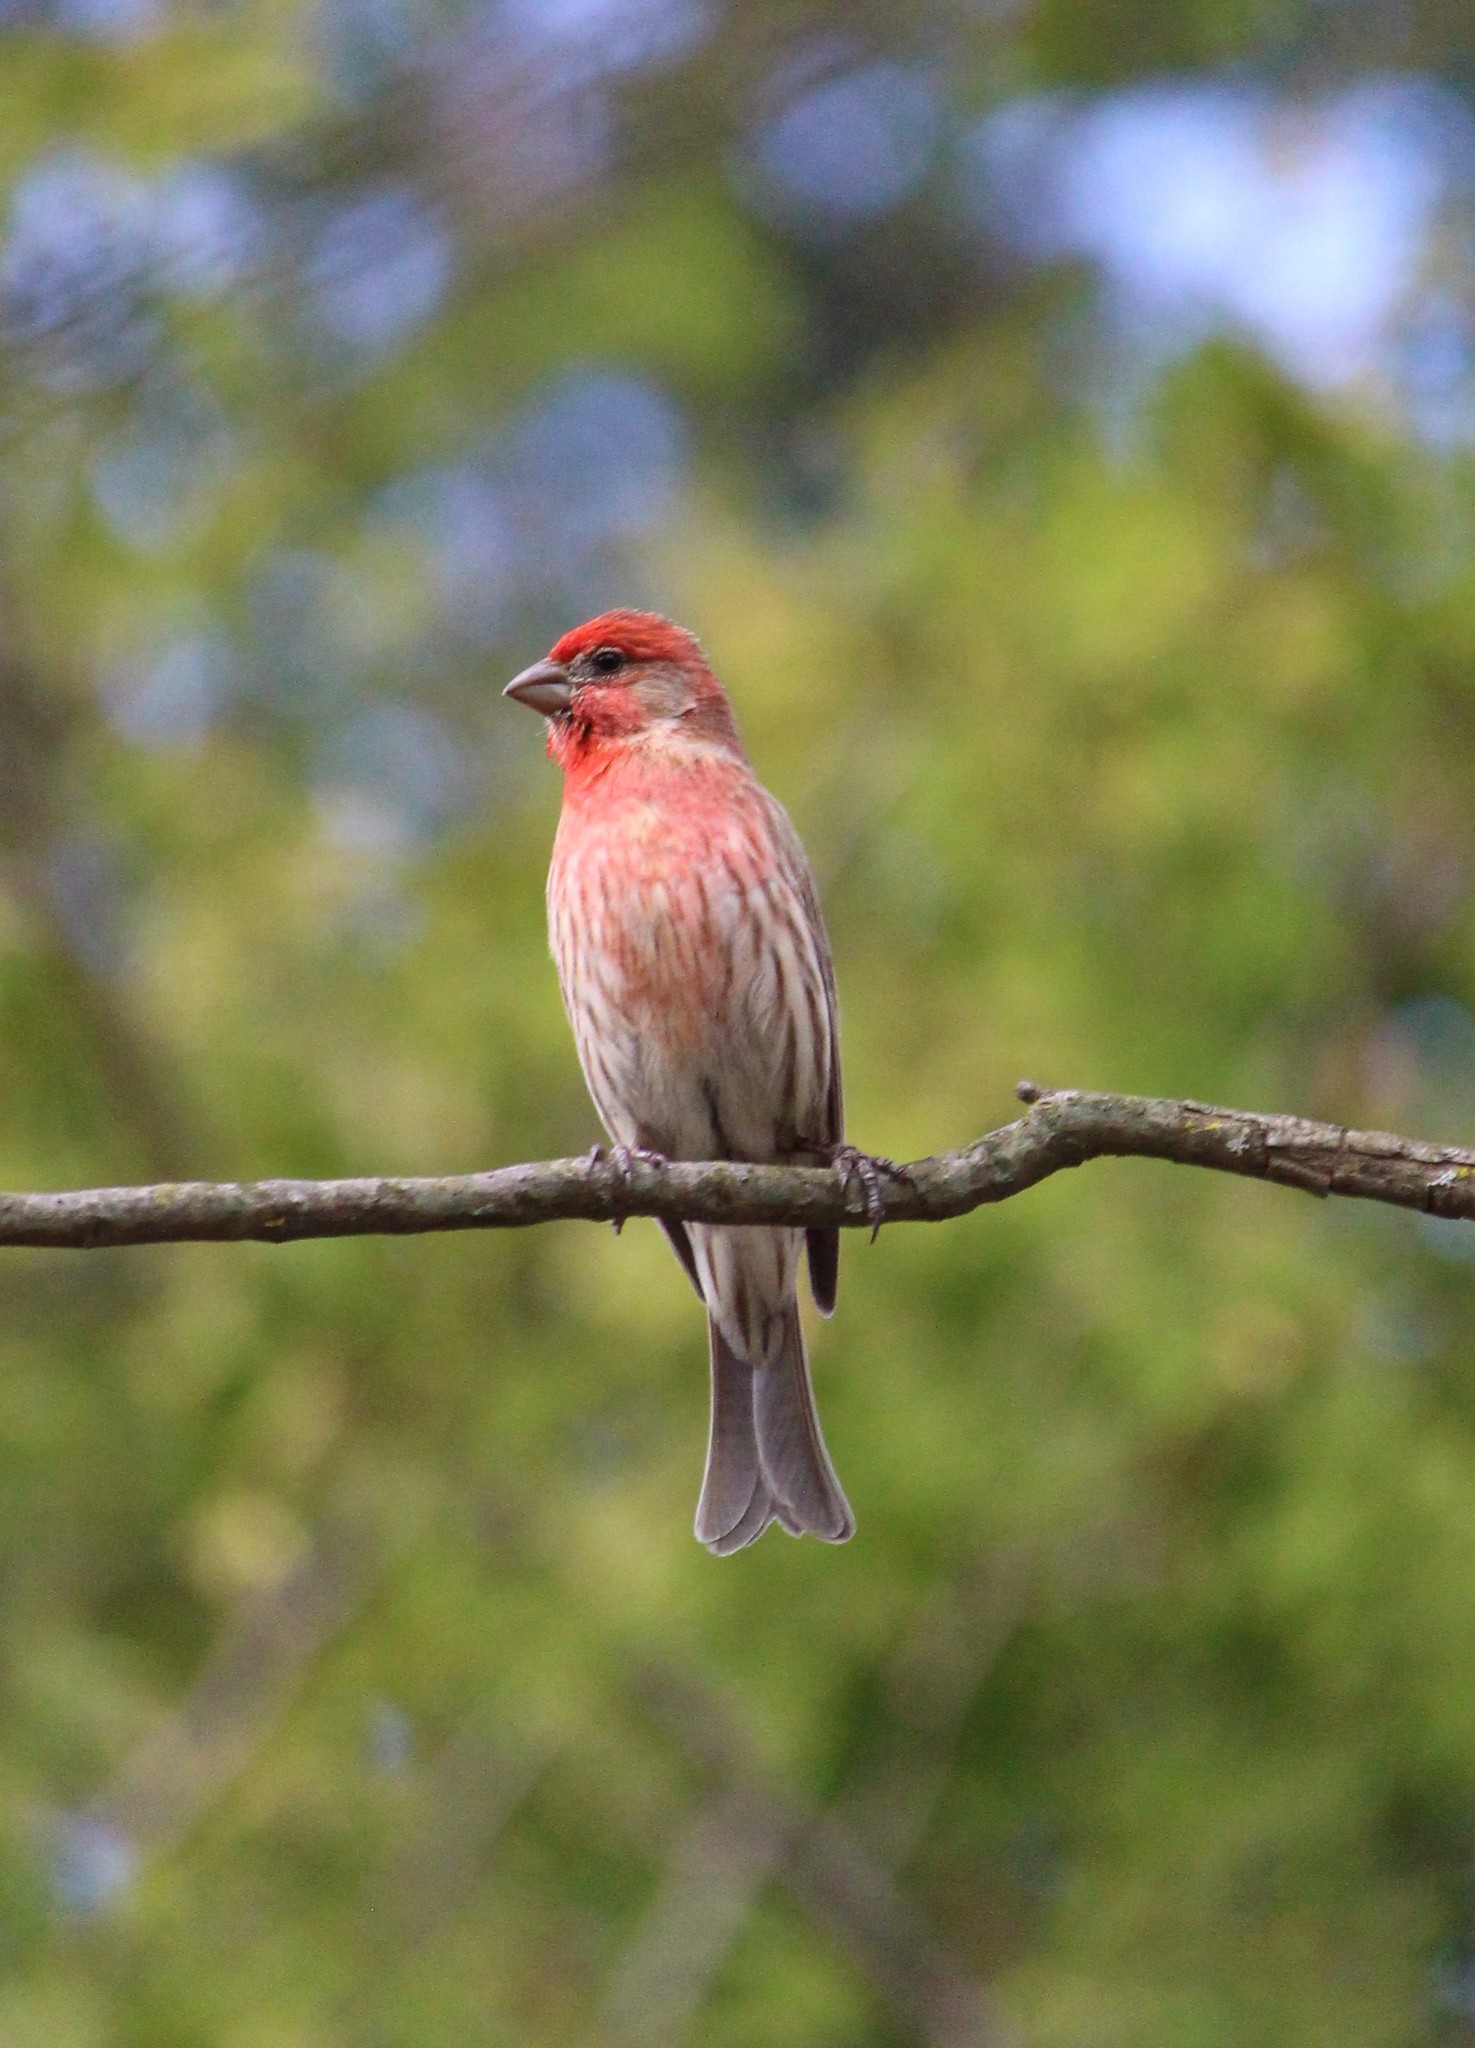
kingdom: Animalia
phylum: Chordata
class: Aves
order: Passeriformes
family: Fringillidae
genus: Haemorhous
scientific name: Haemorhous mexicanus
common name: House finch
